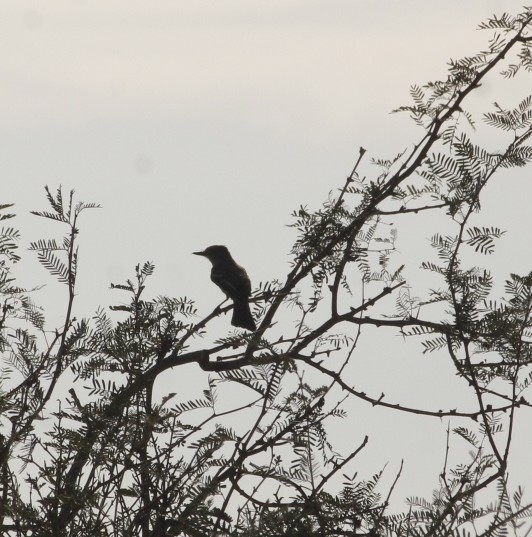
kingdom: Animalia
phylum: Chordata
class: Aves
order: Passeriformes
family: Tyrannidae
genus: Myiarchus
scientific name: Myiarchus cinerascens
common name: Ash-throated flycatcher
